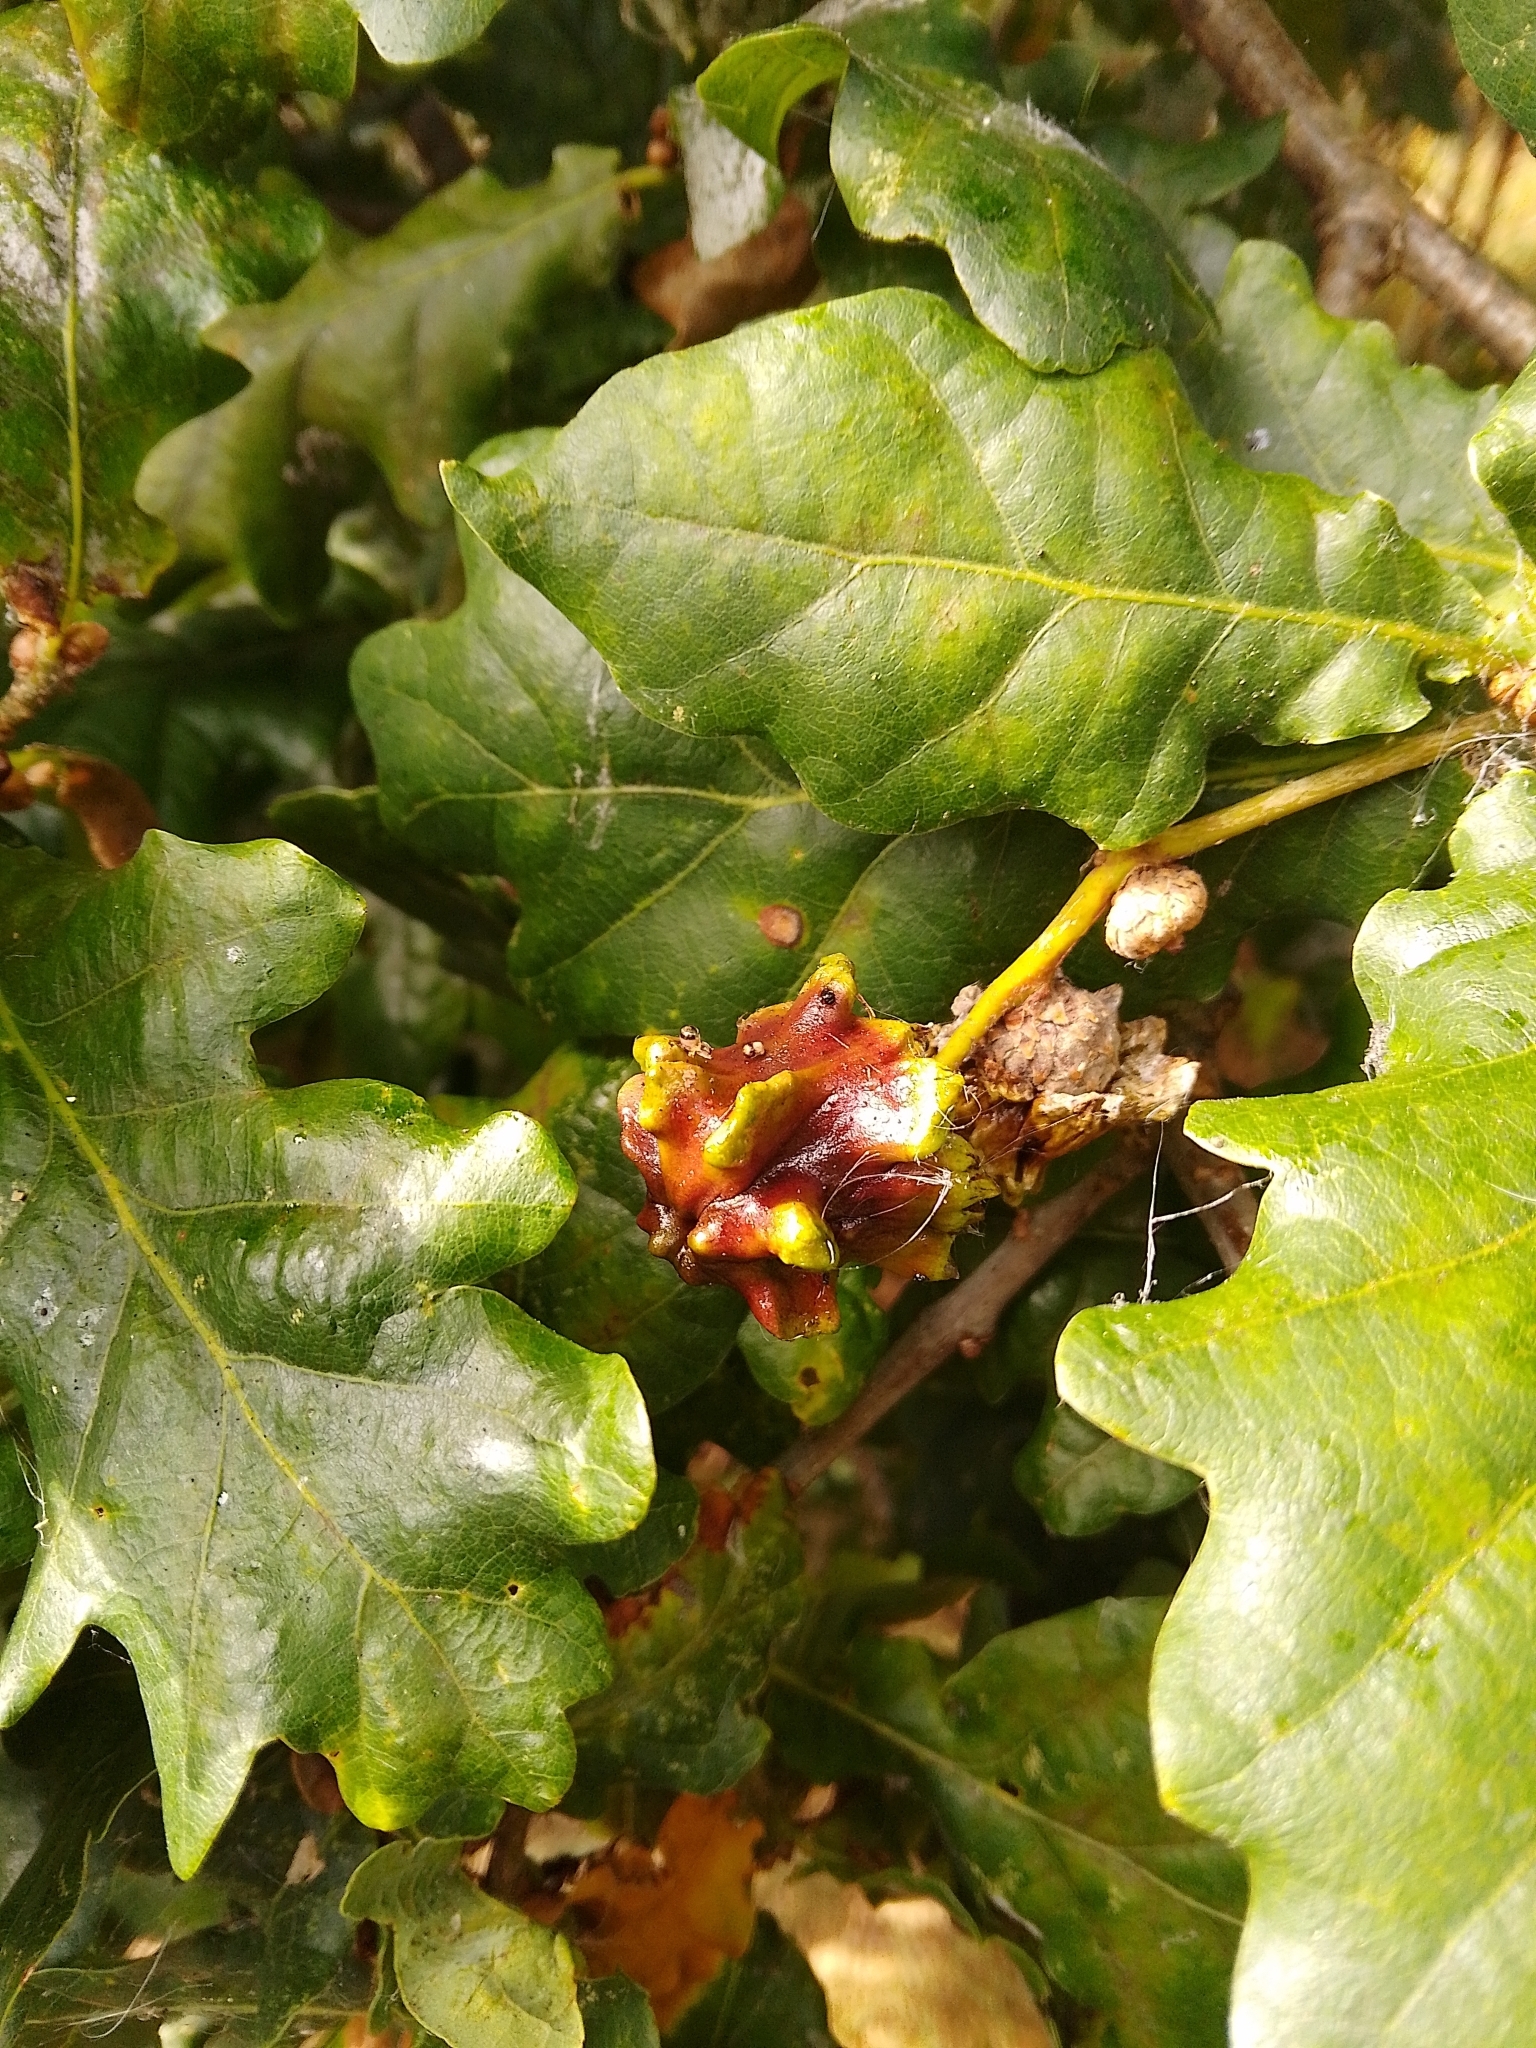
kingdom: Animalia
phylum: Arthropoda
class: Insecta
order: Hymenoptera
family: Cynipidae
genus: Andricus
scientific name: Andricus quercuscalicis
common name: Knopper gall
